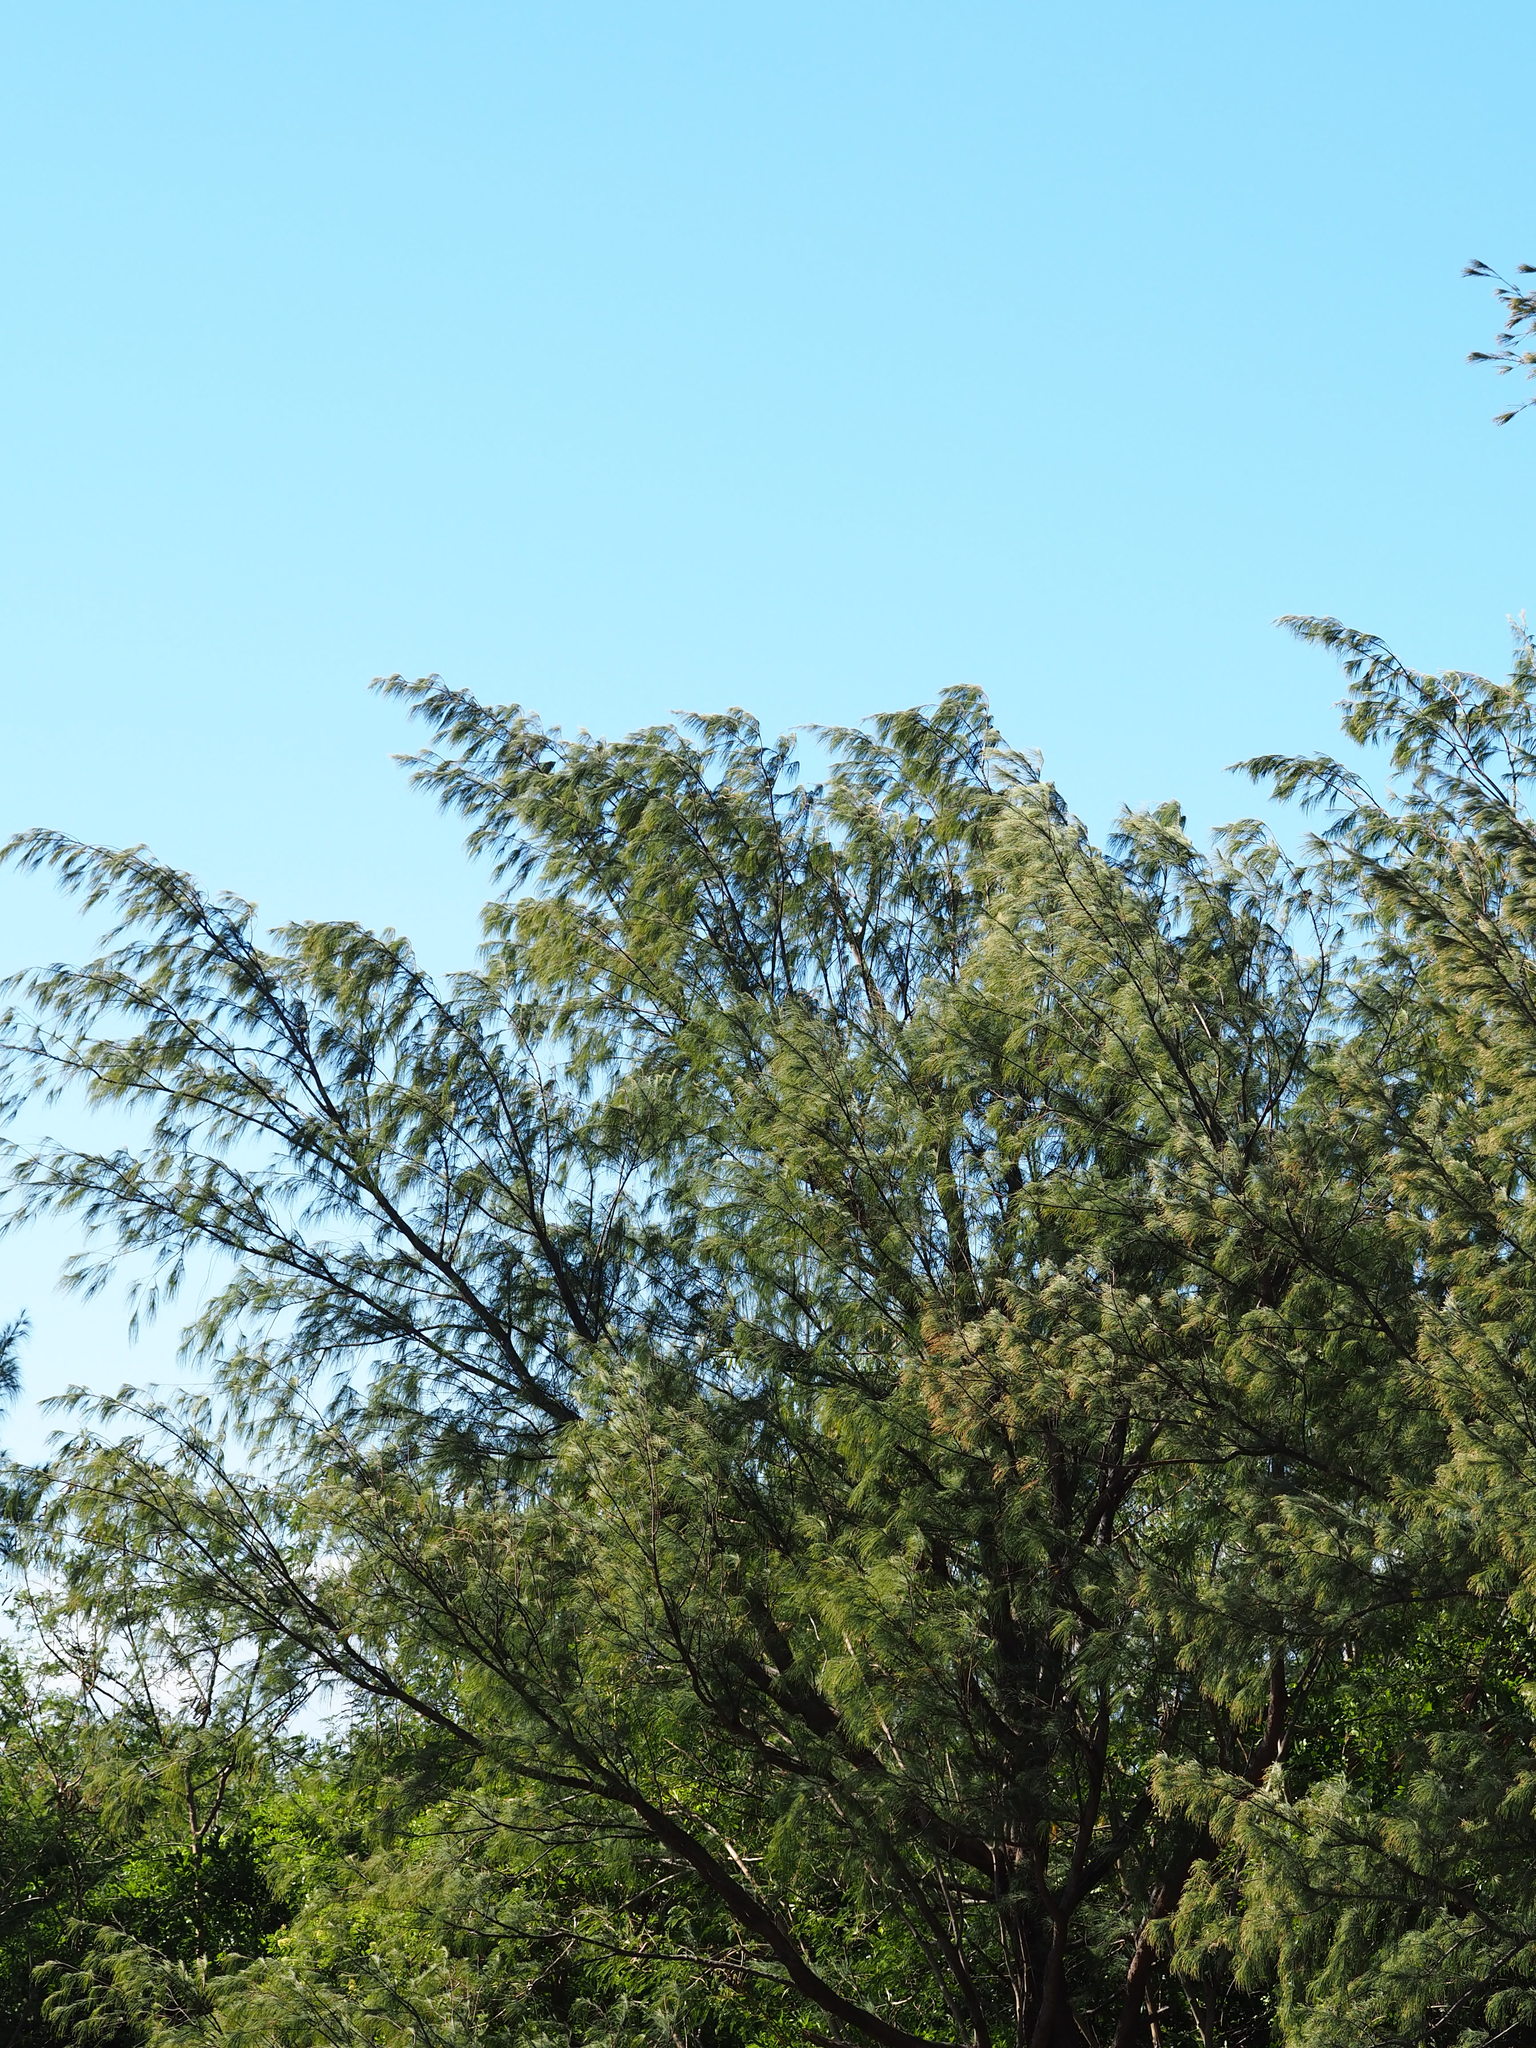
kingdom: Plantae
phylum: Tracheophyta
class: Magnoliopsida
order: Fagales
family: Casuarinaceae
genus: Casuarina
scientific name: Casuarina equisetifolia
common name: Beach sheoak
